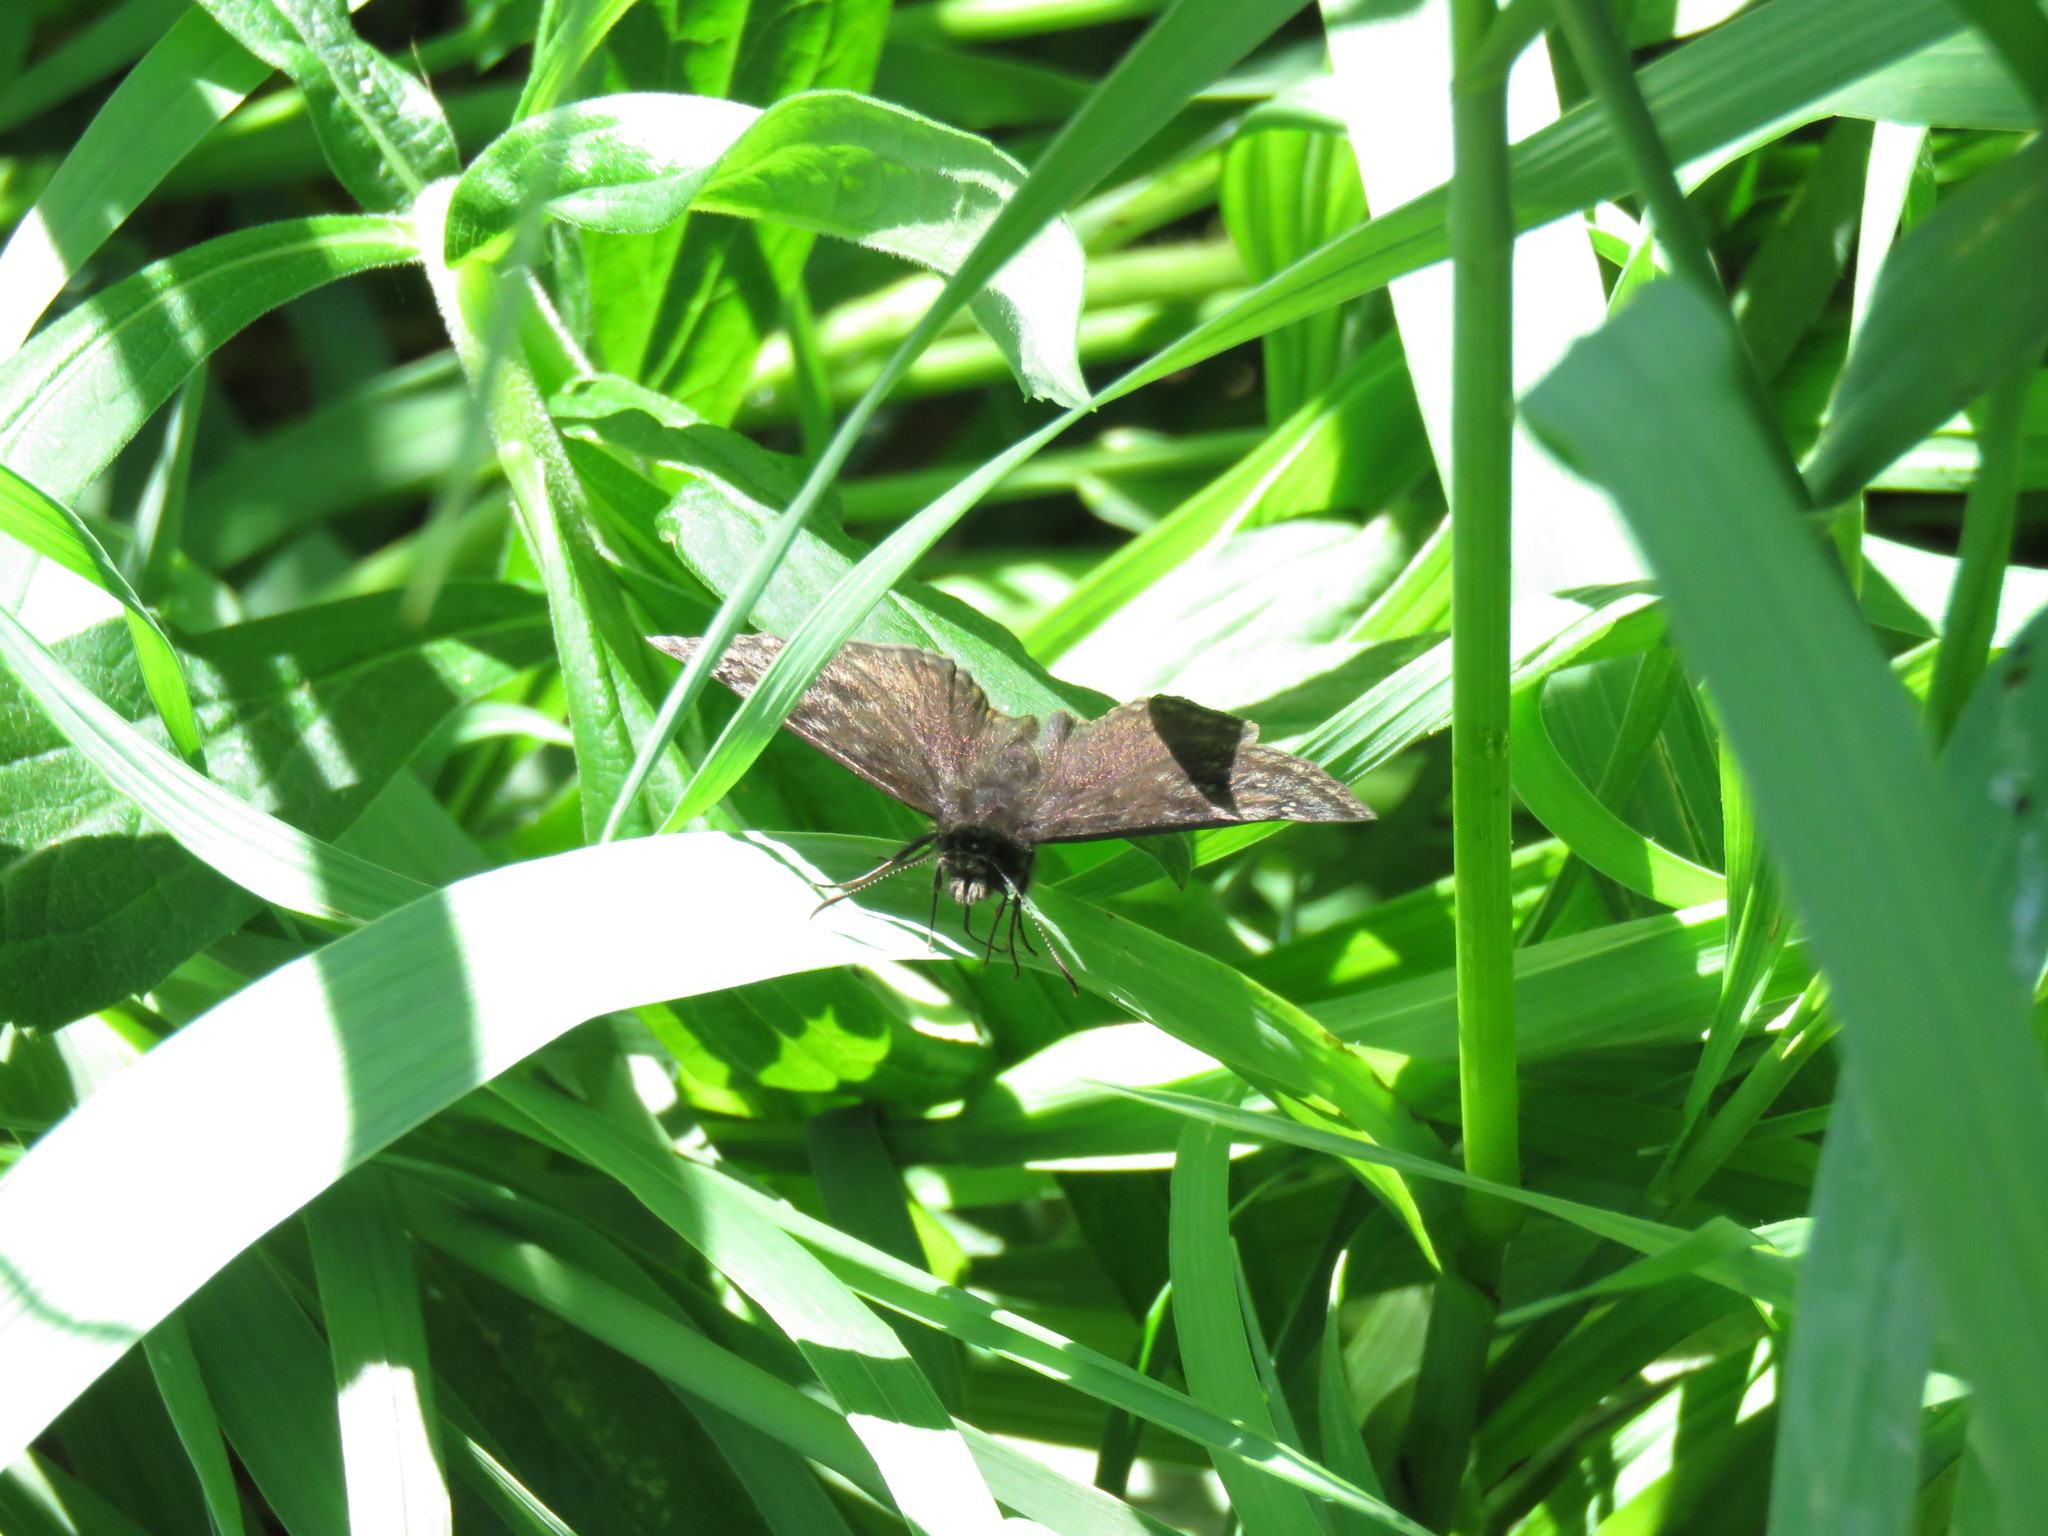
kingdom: Animalia
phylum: Arthropoda
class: Insecta
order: Lepidoptera
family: Hesperiidae
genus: Erynnis
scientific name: Erynnis baptisiae
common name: Wild indigo duskywing
